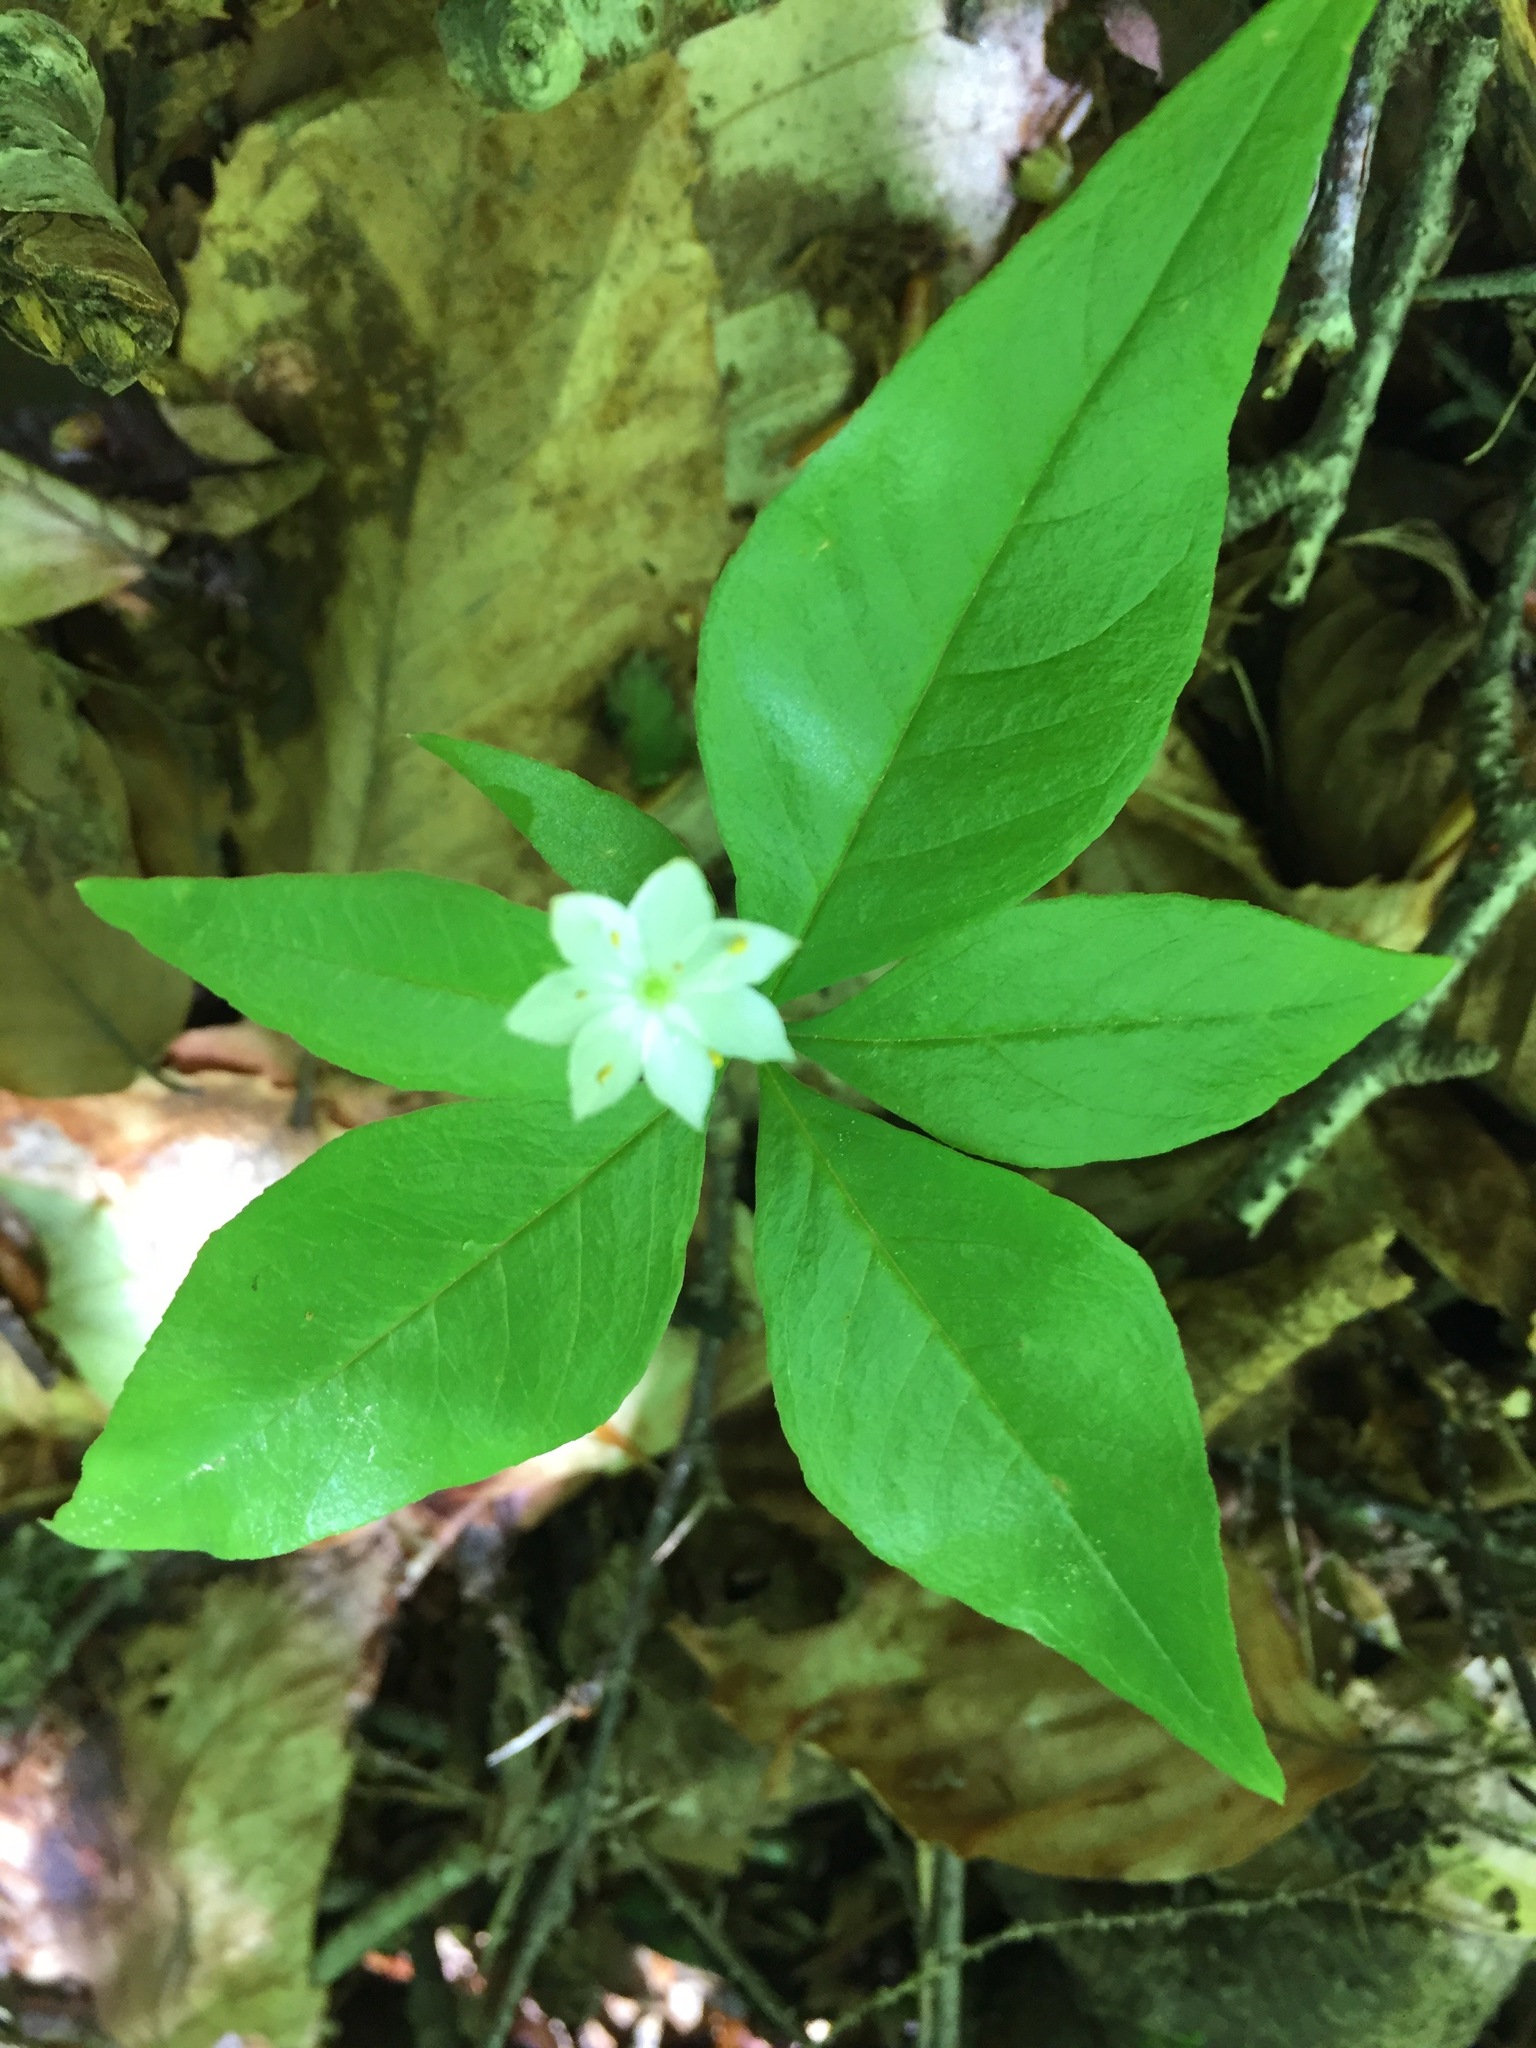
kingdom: Plantae
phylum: Tracheophyta
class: Magnoliopsida
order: Ericales
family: Primulaceae
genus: Lysimachia
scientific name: Lysimachia borealis
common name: American starflower
